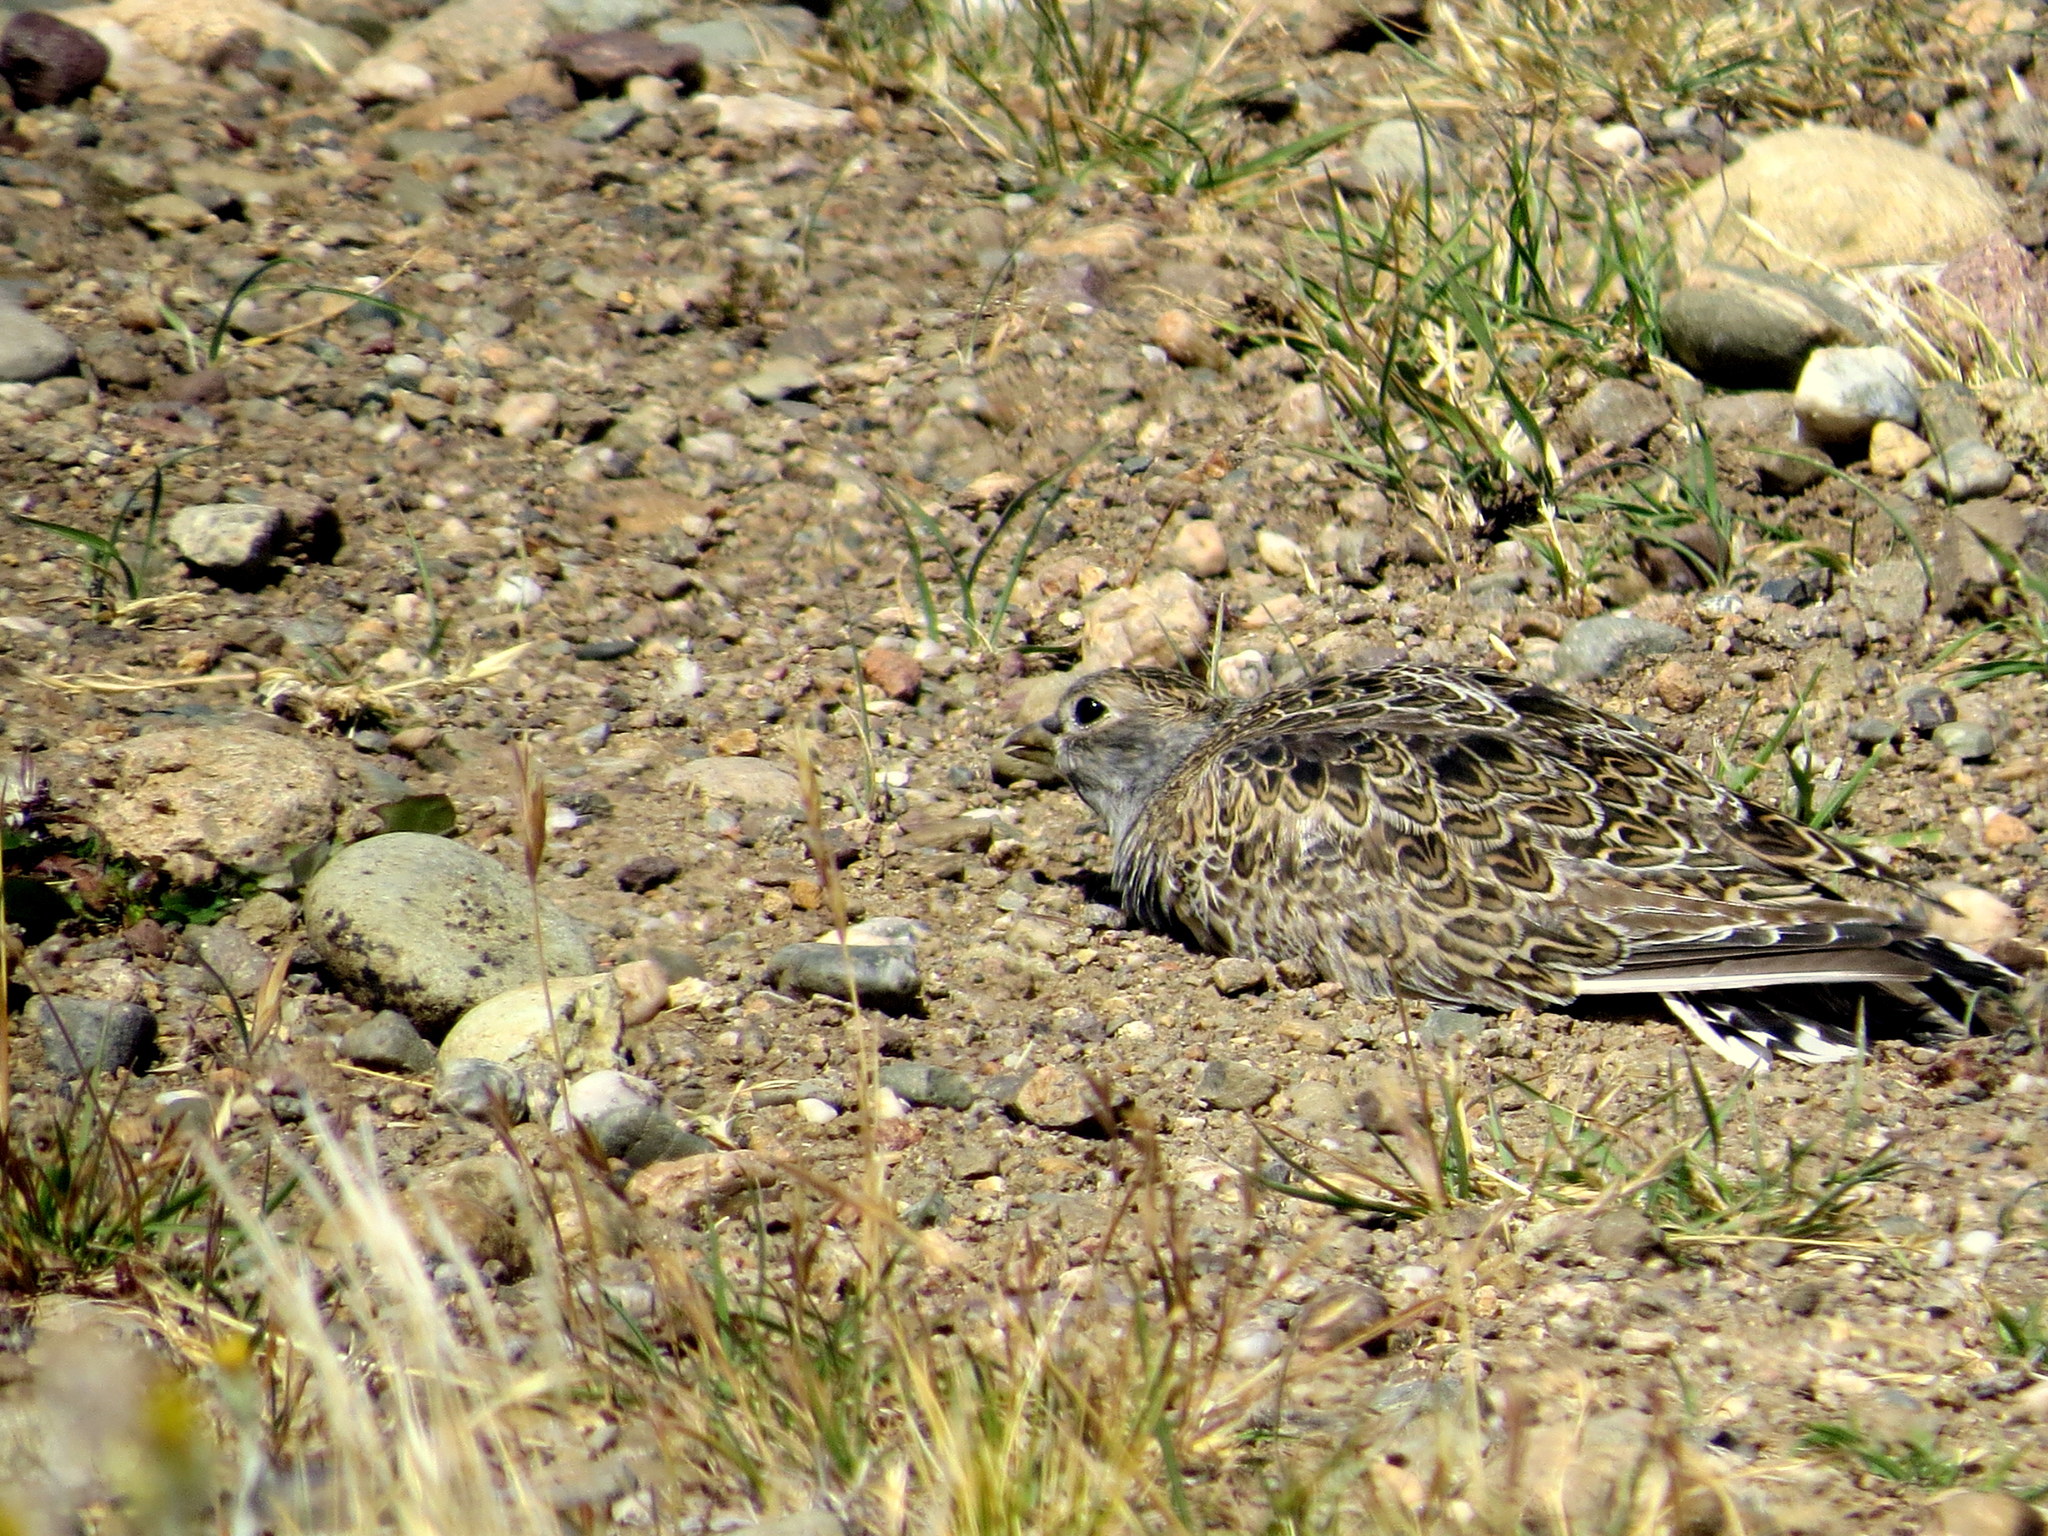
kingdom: Animalia
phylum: Chordata
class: Aves
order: Charadriiformes
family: Thinocoridae
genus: Thinocorus
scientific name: Thinocorus rumicivorus
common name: Least seedsnipe
